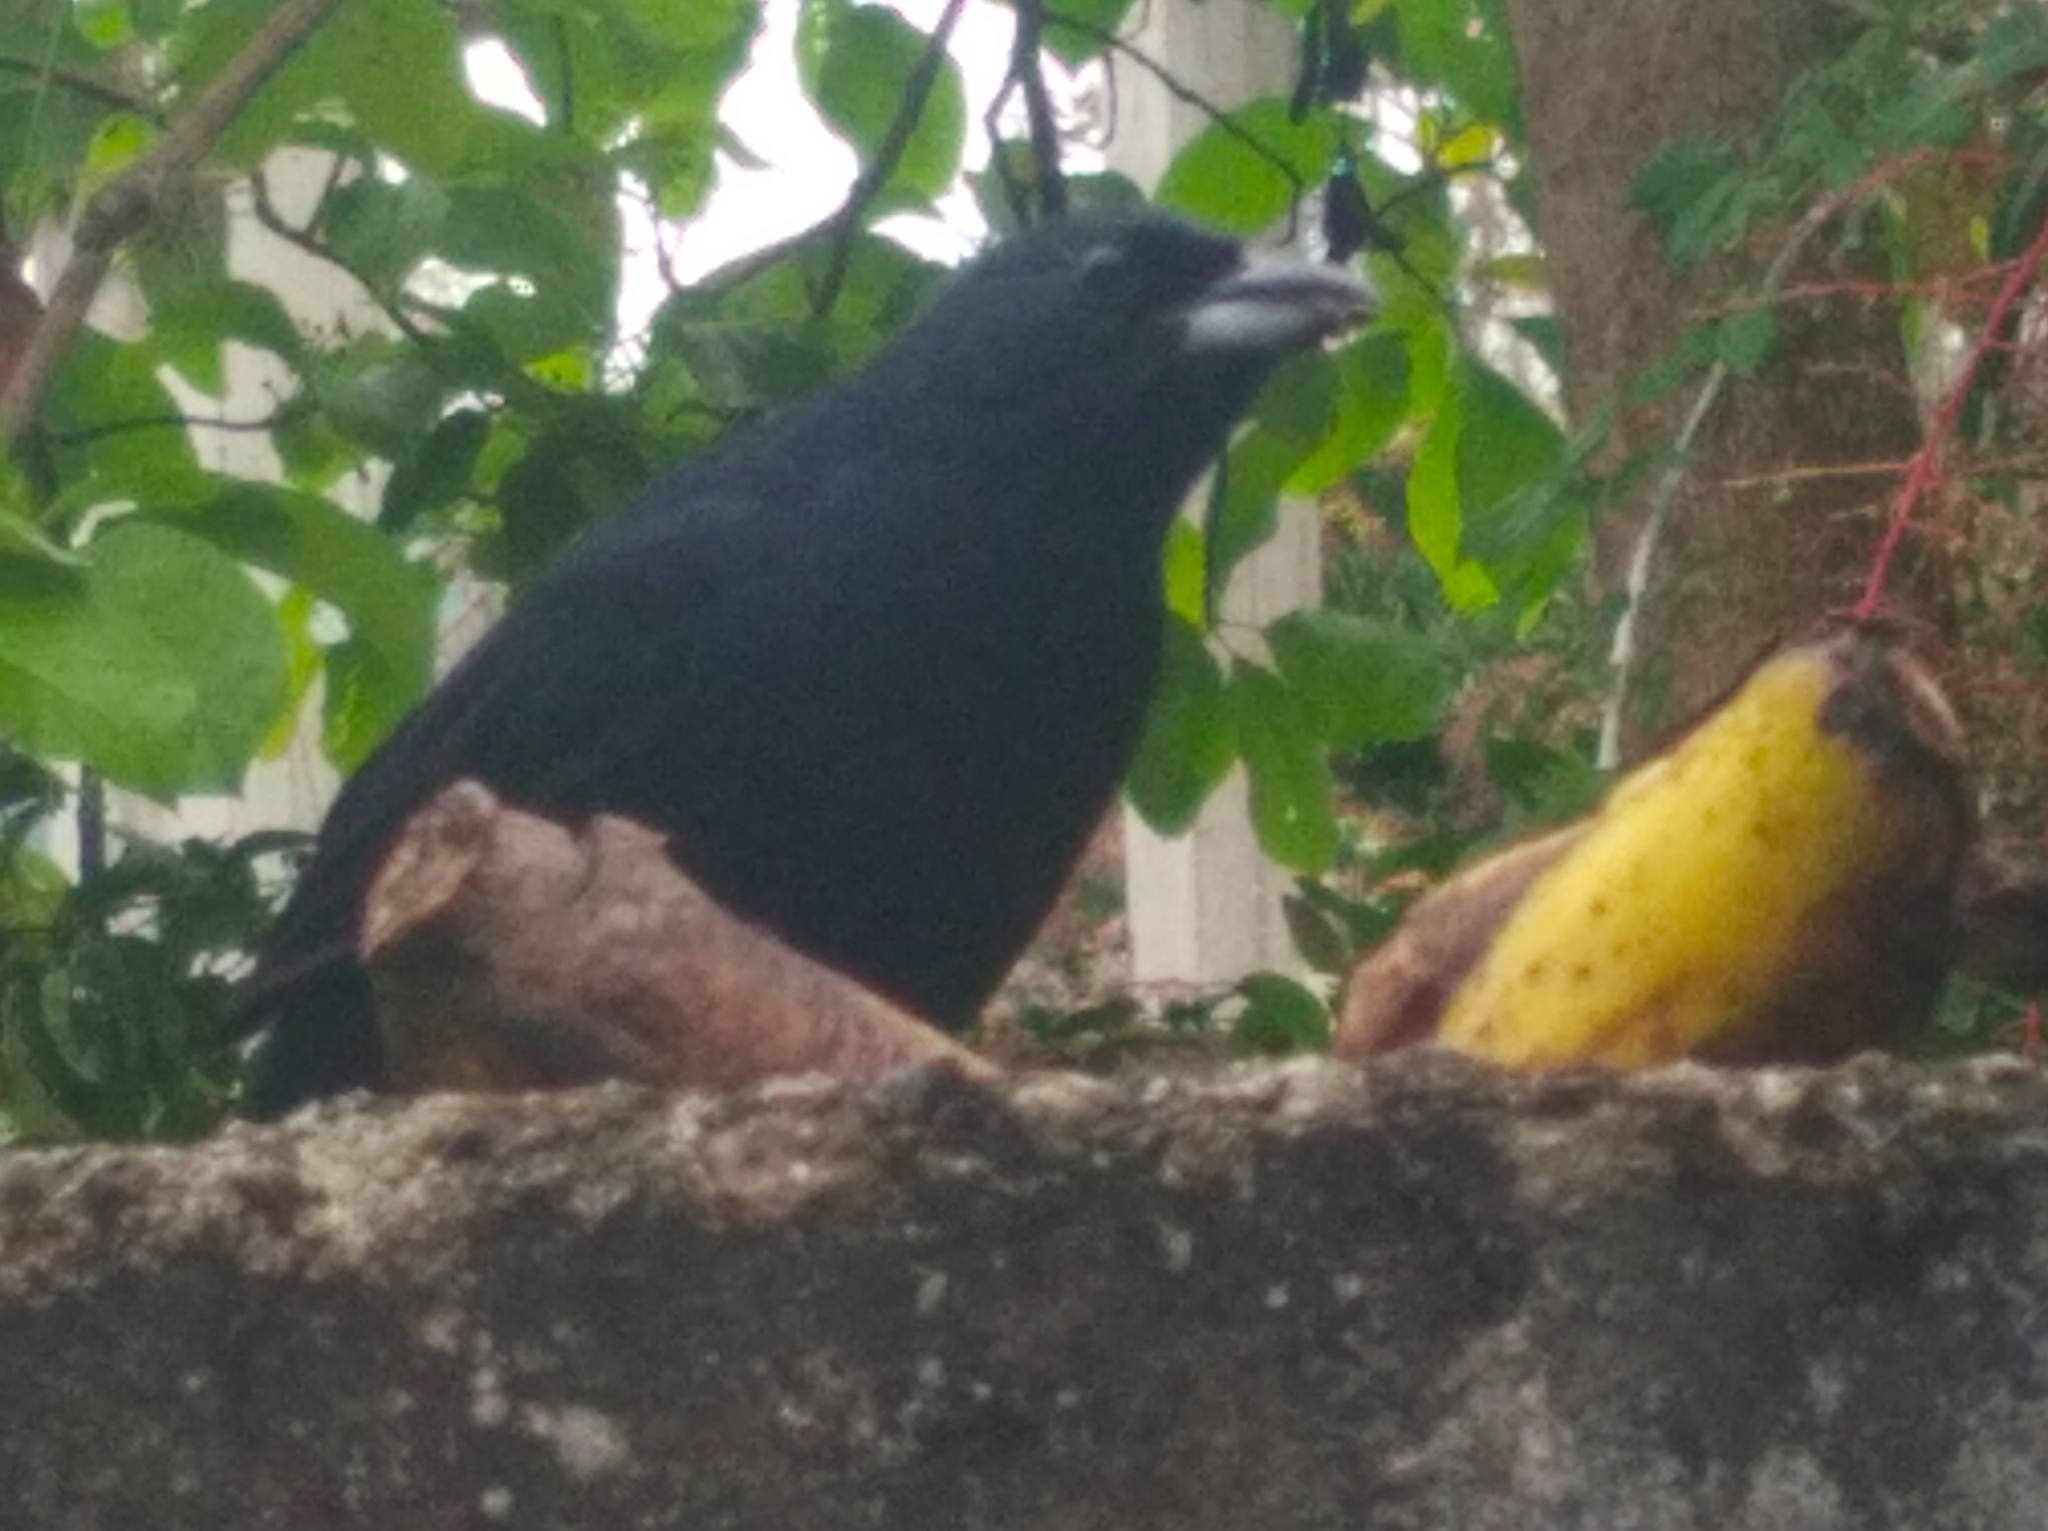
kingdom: Animalia
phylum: Chordata
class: Aves
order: Passeriformes
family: Thraupidae
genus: Tachyphonus
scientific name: Tachyphonus rufus
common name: White-lined tanager
